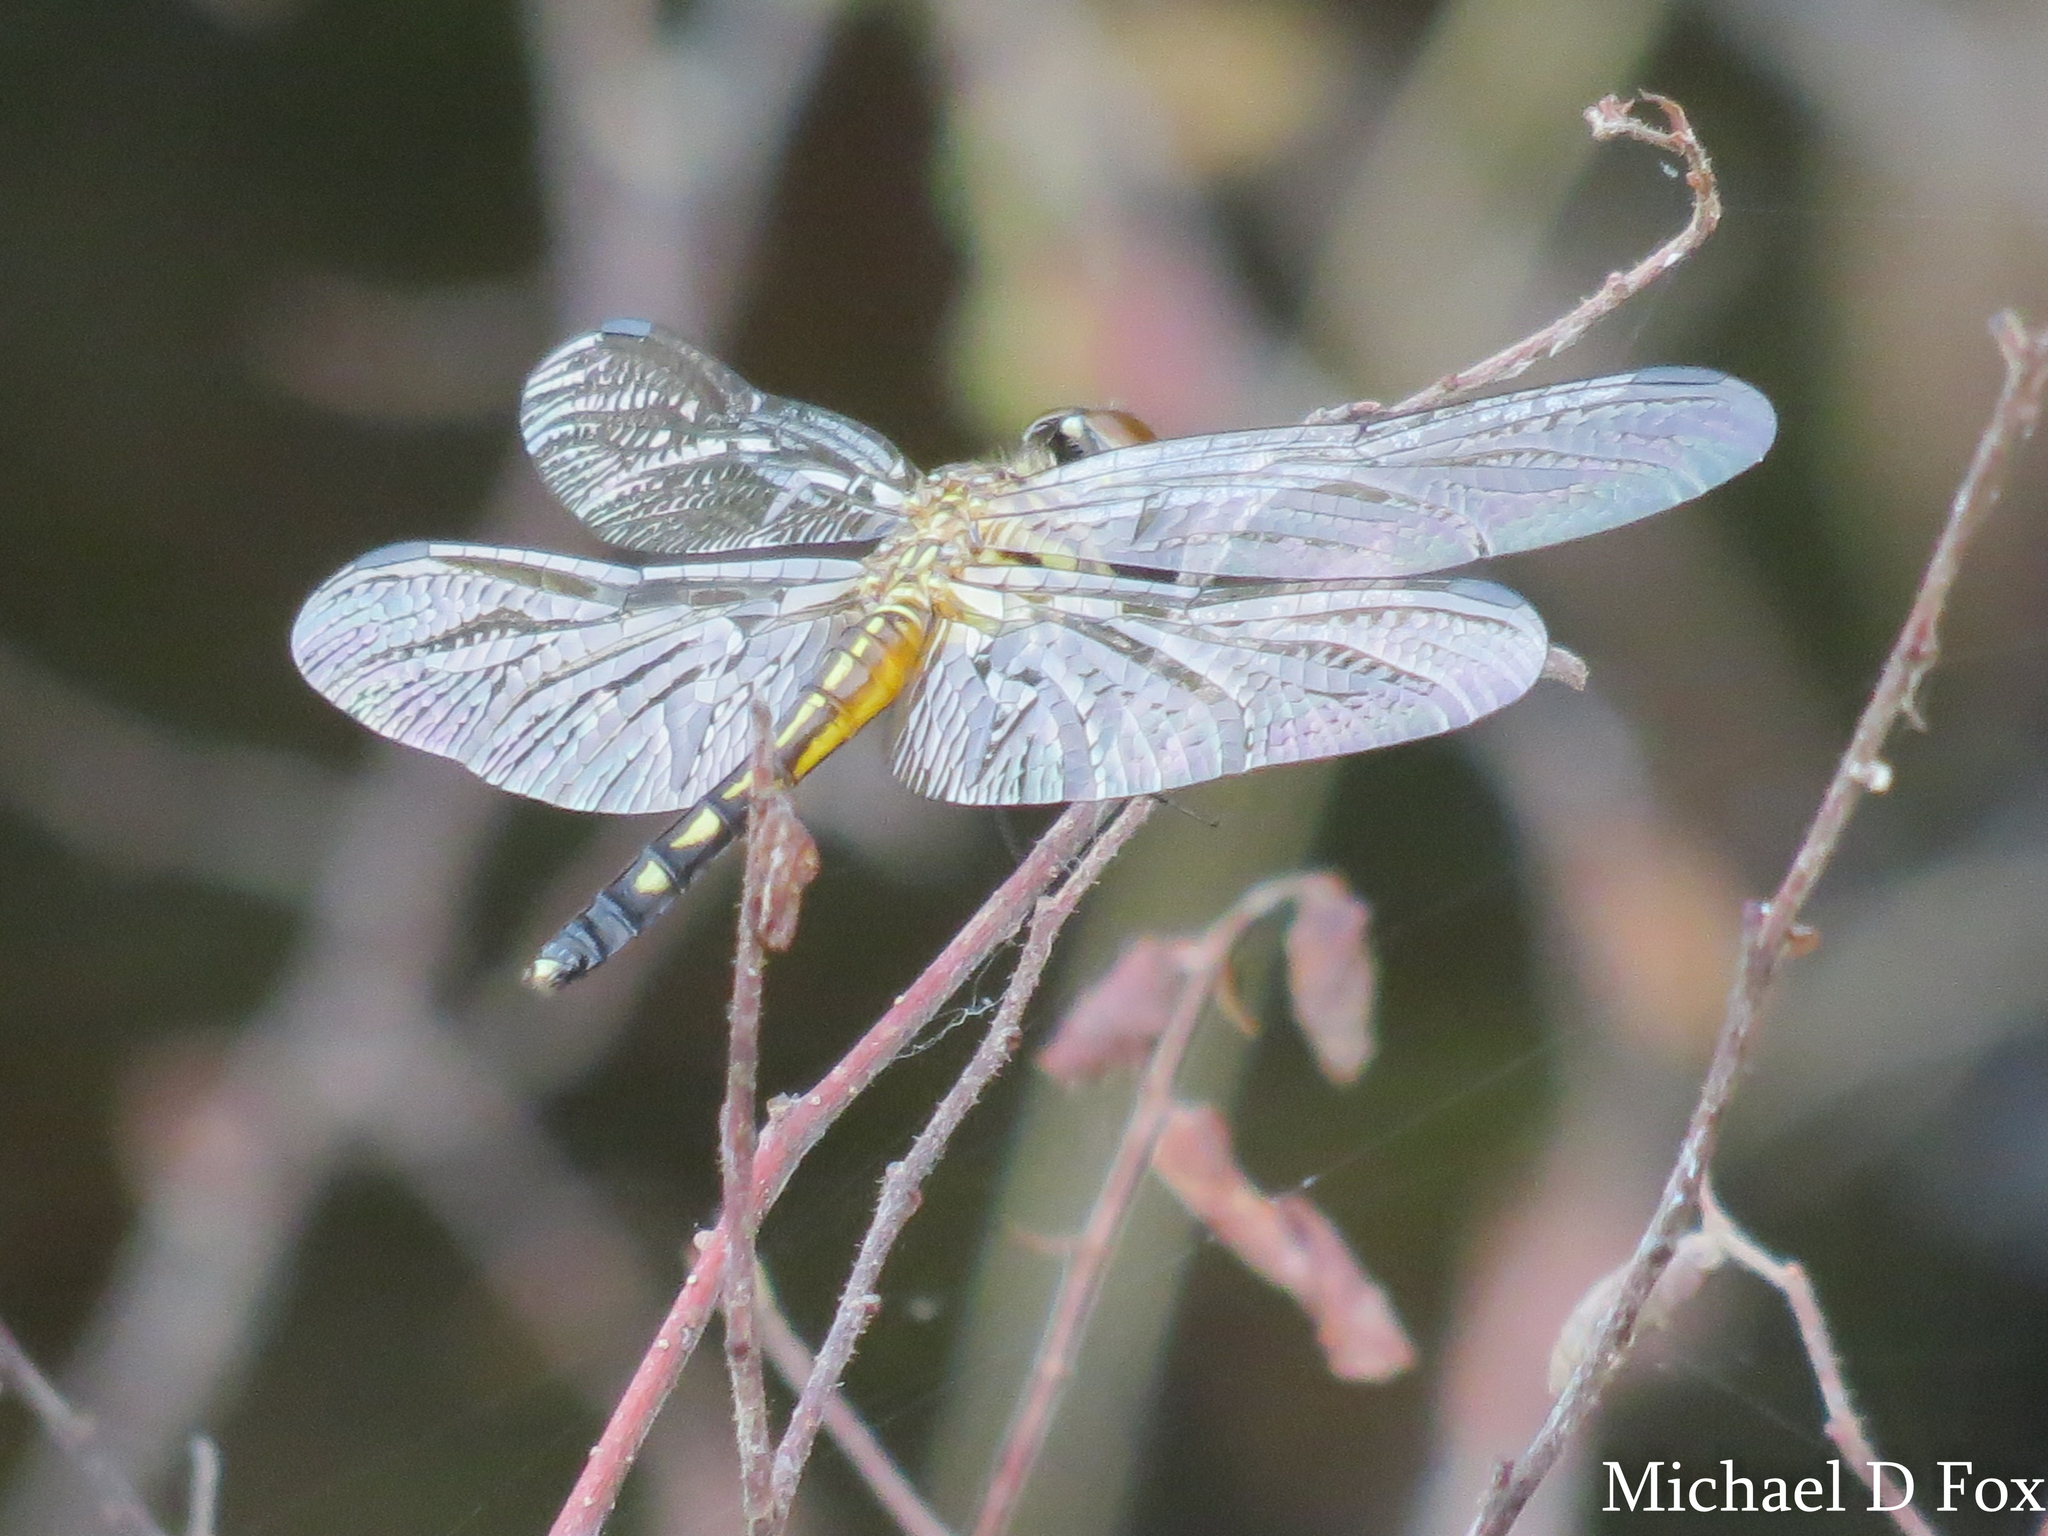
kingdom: Animalia
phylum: Arthropoda
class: Insecta
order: Odonata
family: Libellulidae
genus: Pachydiplax
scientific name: Pachydiplax longipennis
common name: Blue dasher
